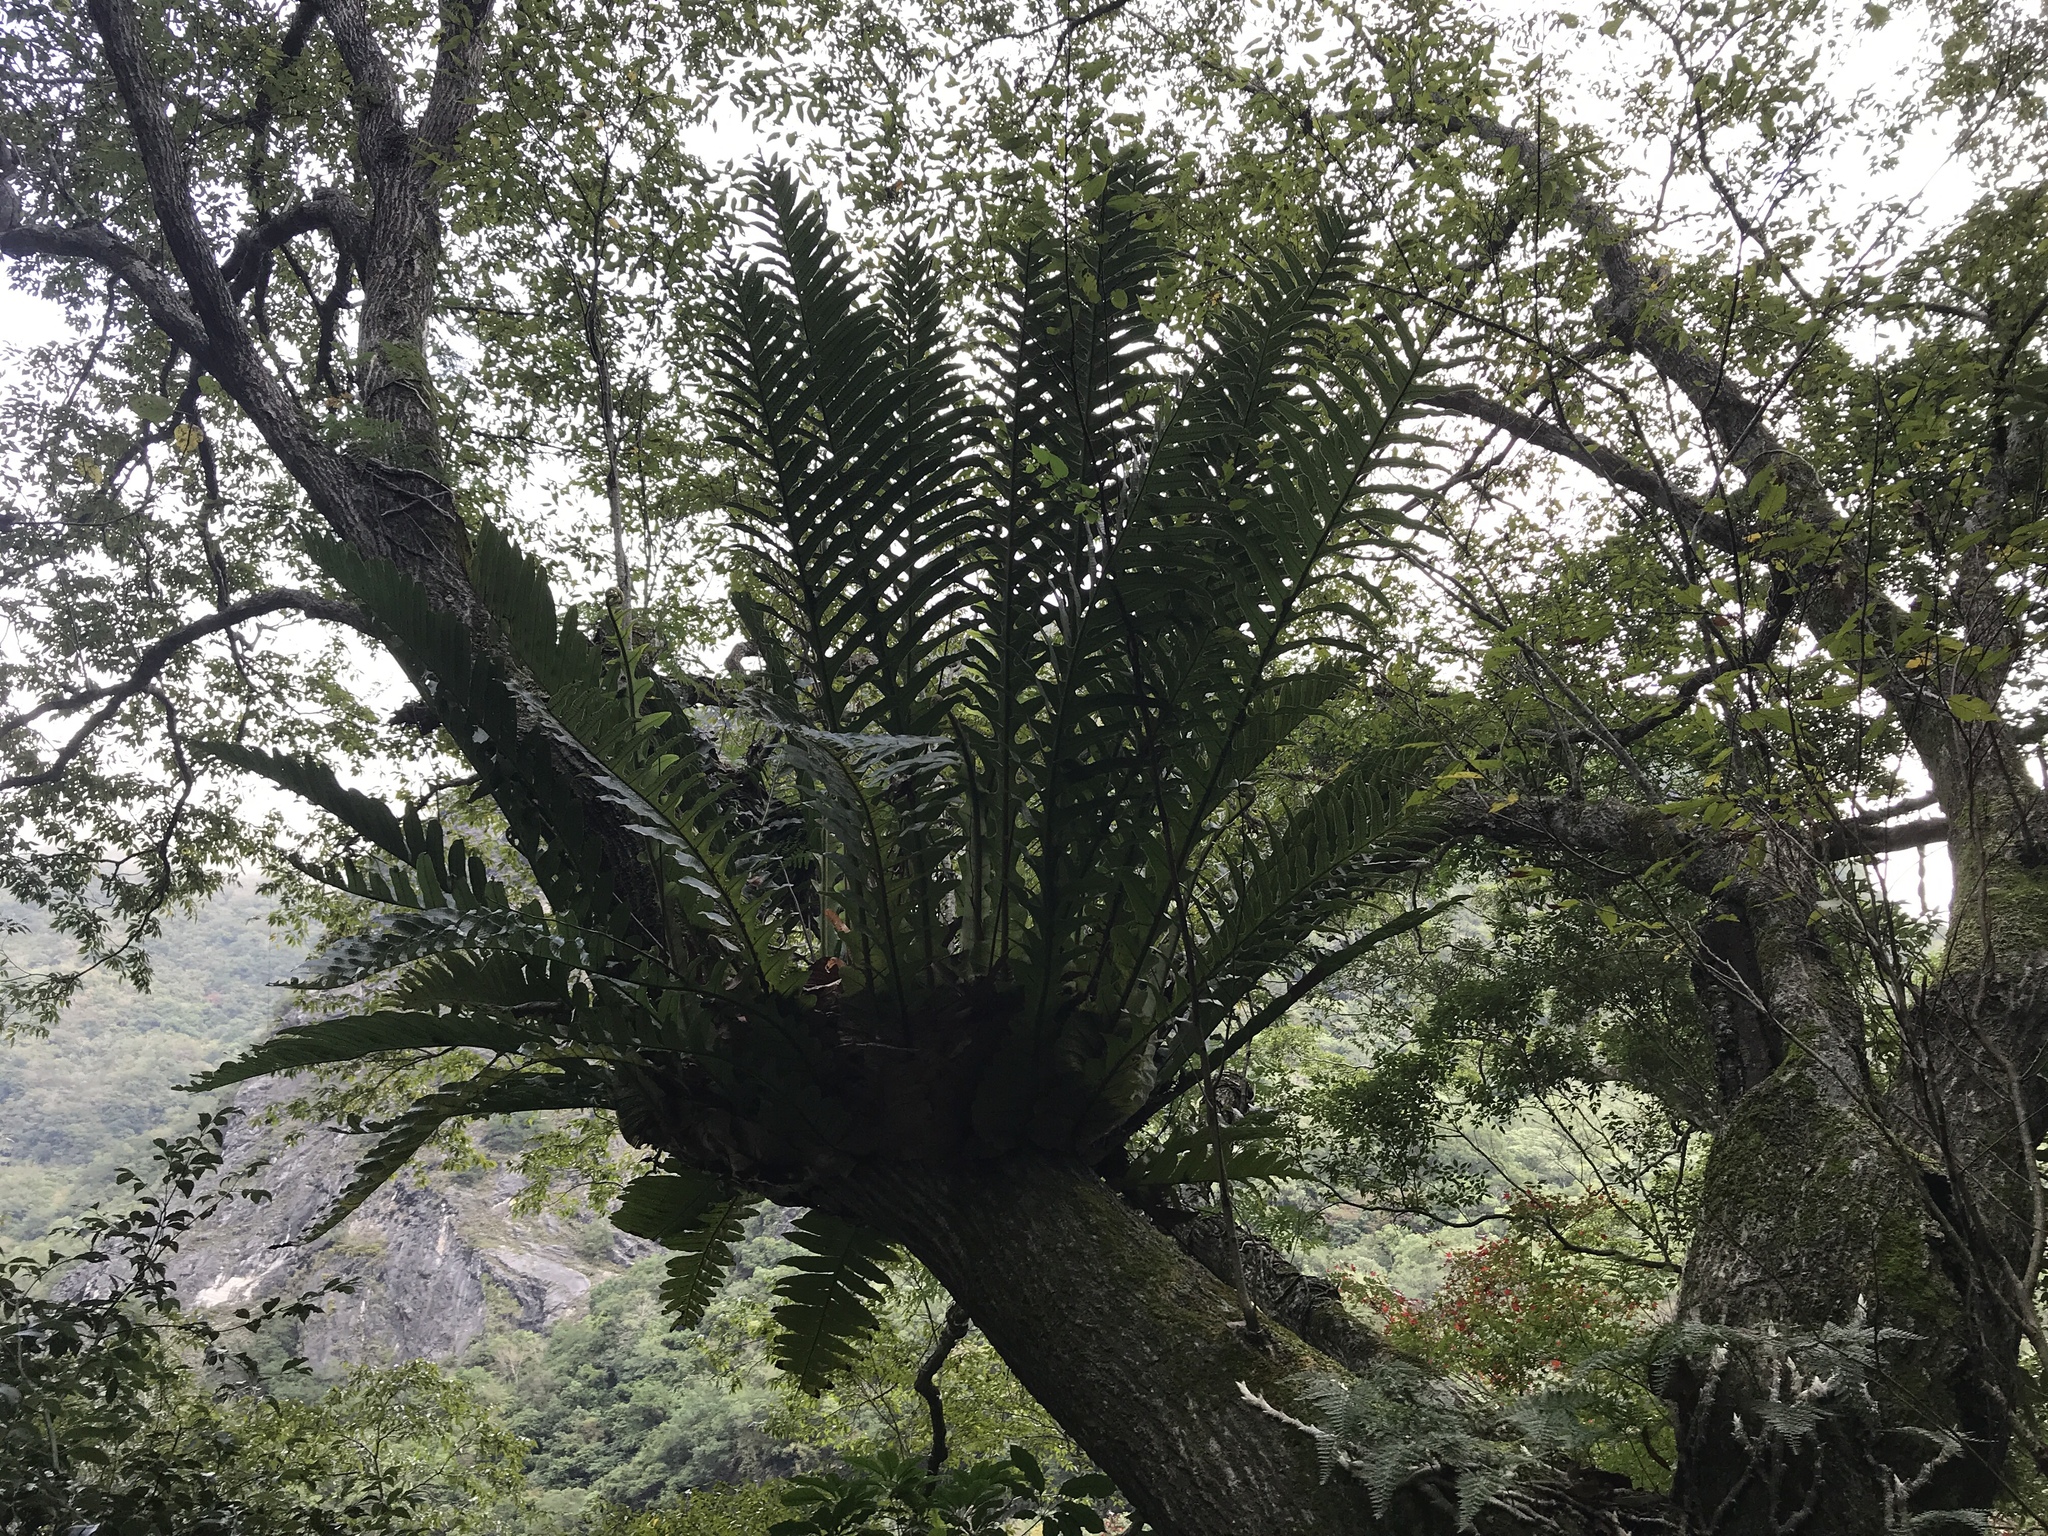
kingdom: Plantae
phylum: Tracheophyta
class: Polypodiopsida
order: Polypodiales
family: Polypodiaceae
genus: Drynaria
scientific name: Drynaria coronans
